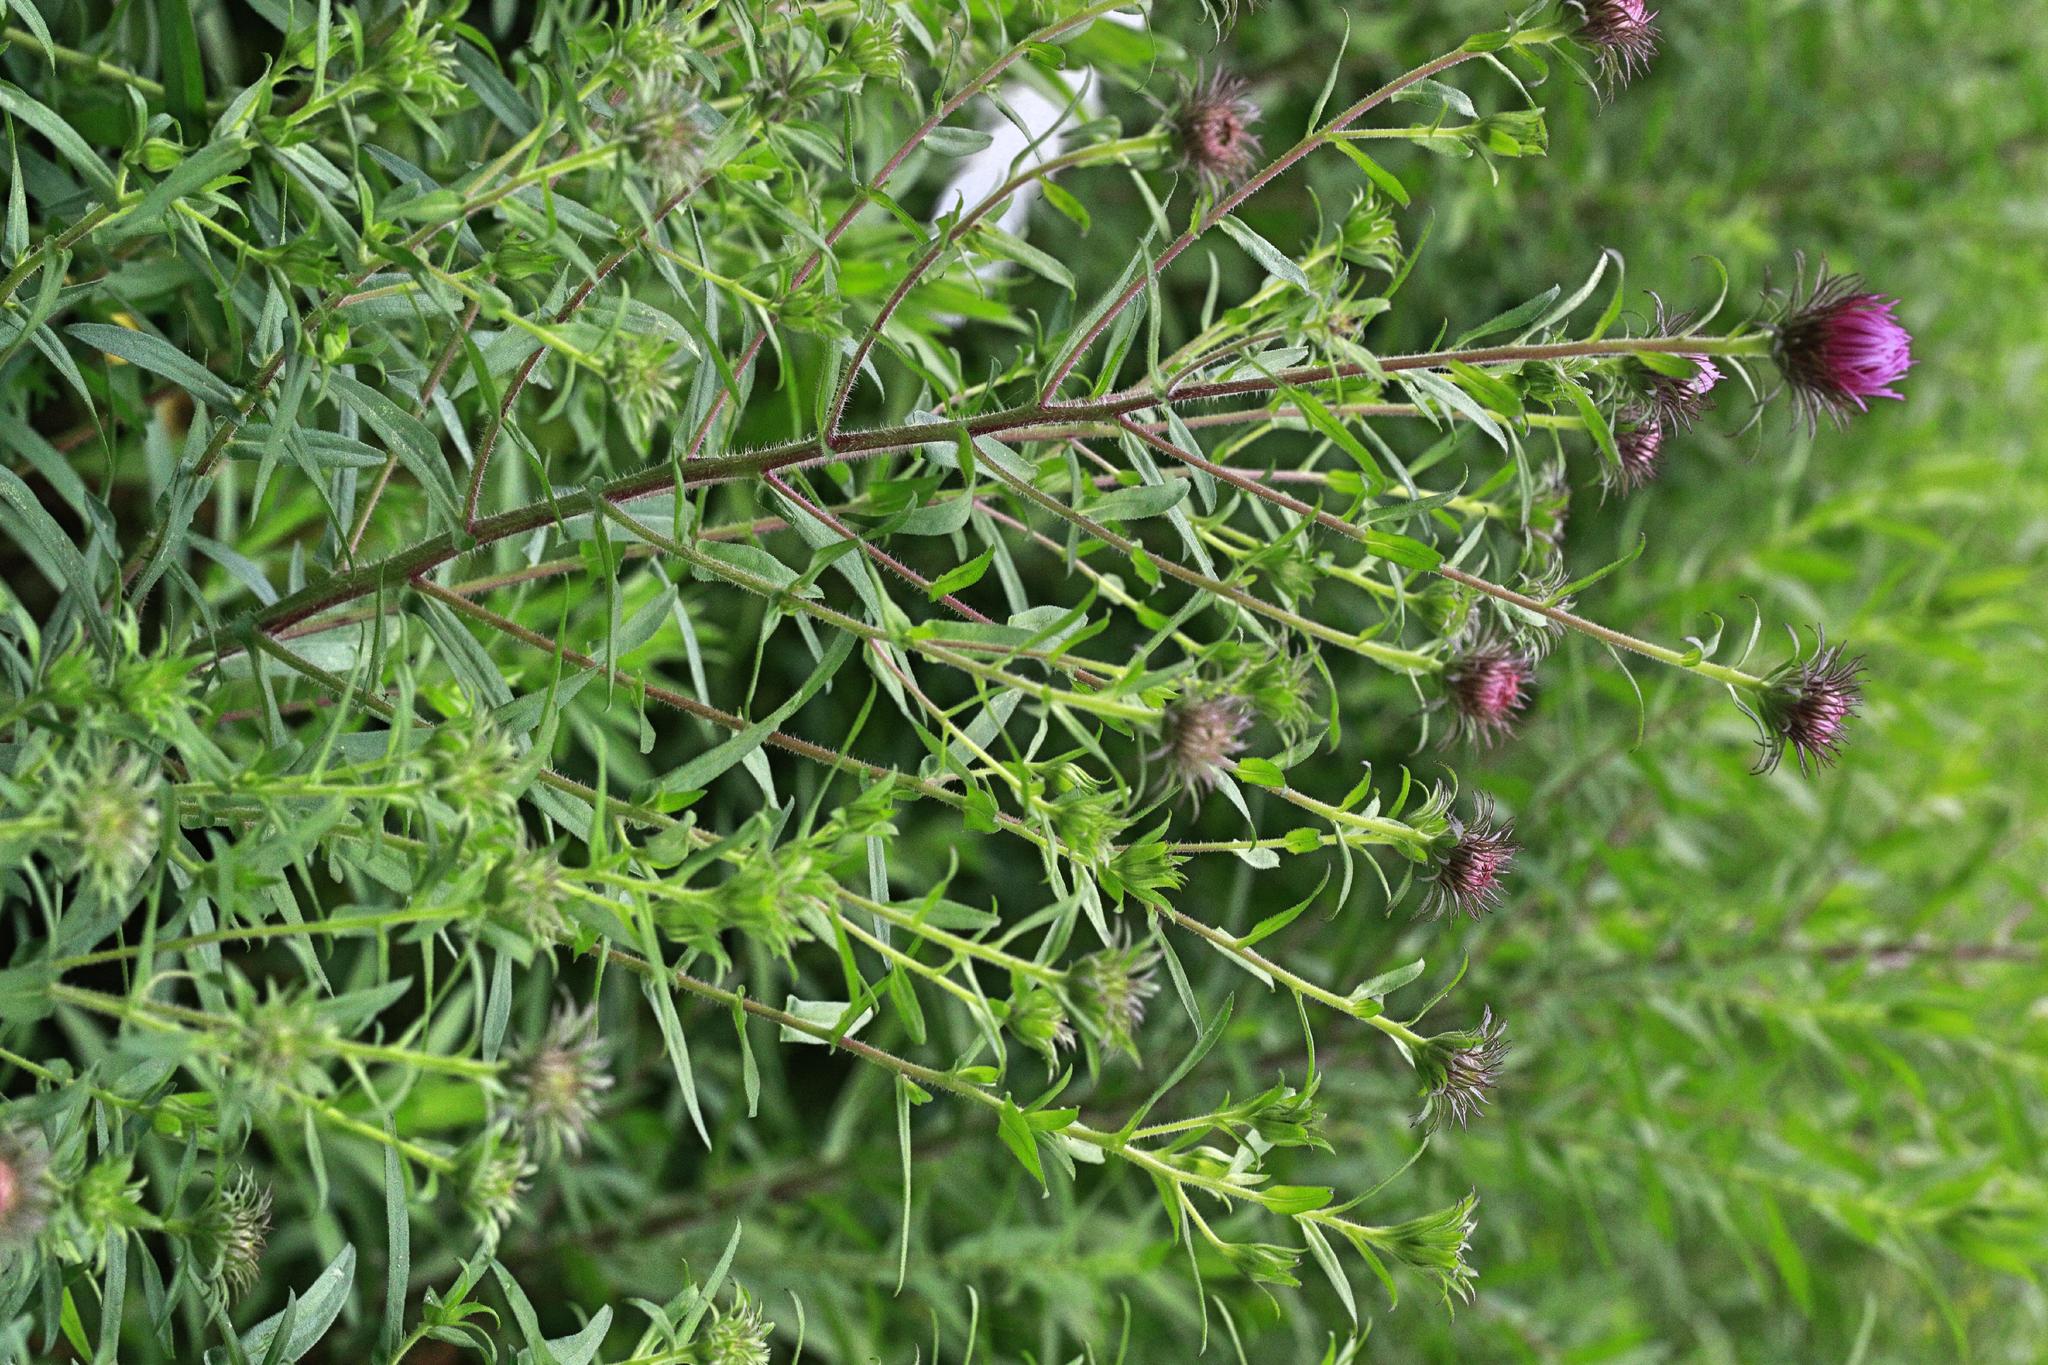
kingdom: Plantae
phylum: Tracheophyta
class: Magnoliopsida
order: Asterales
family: Asteraceae
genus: Symphyotrichum
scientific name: Symphyotrichum novae-angliae
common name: Michaelmas daisy
